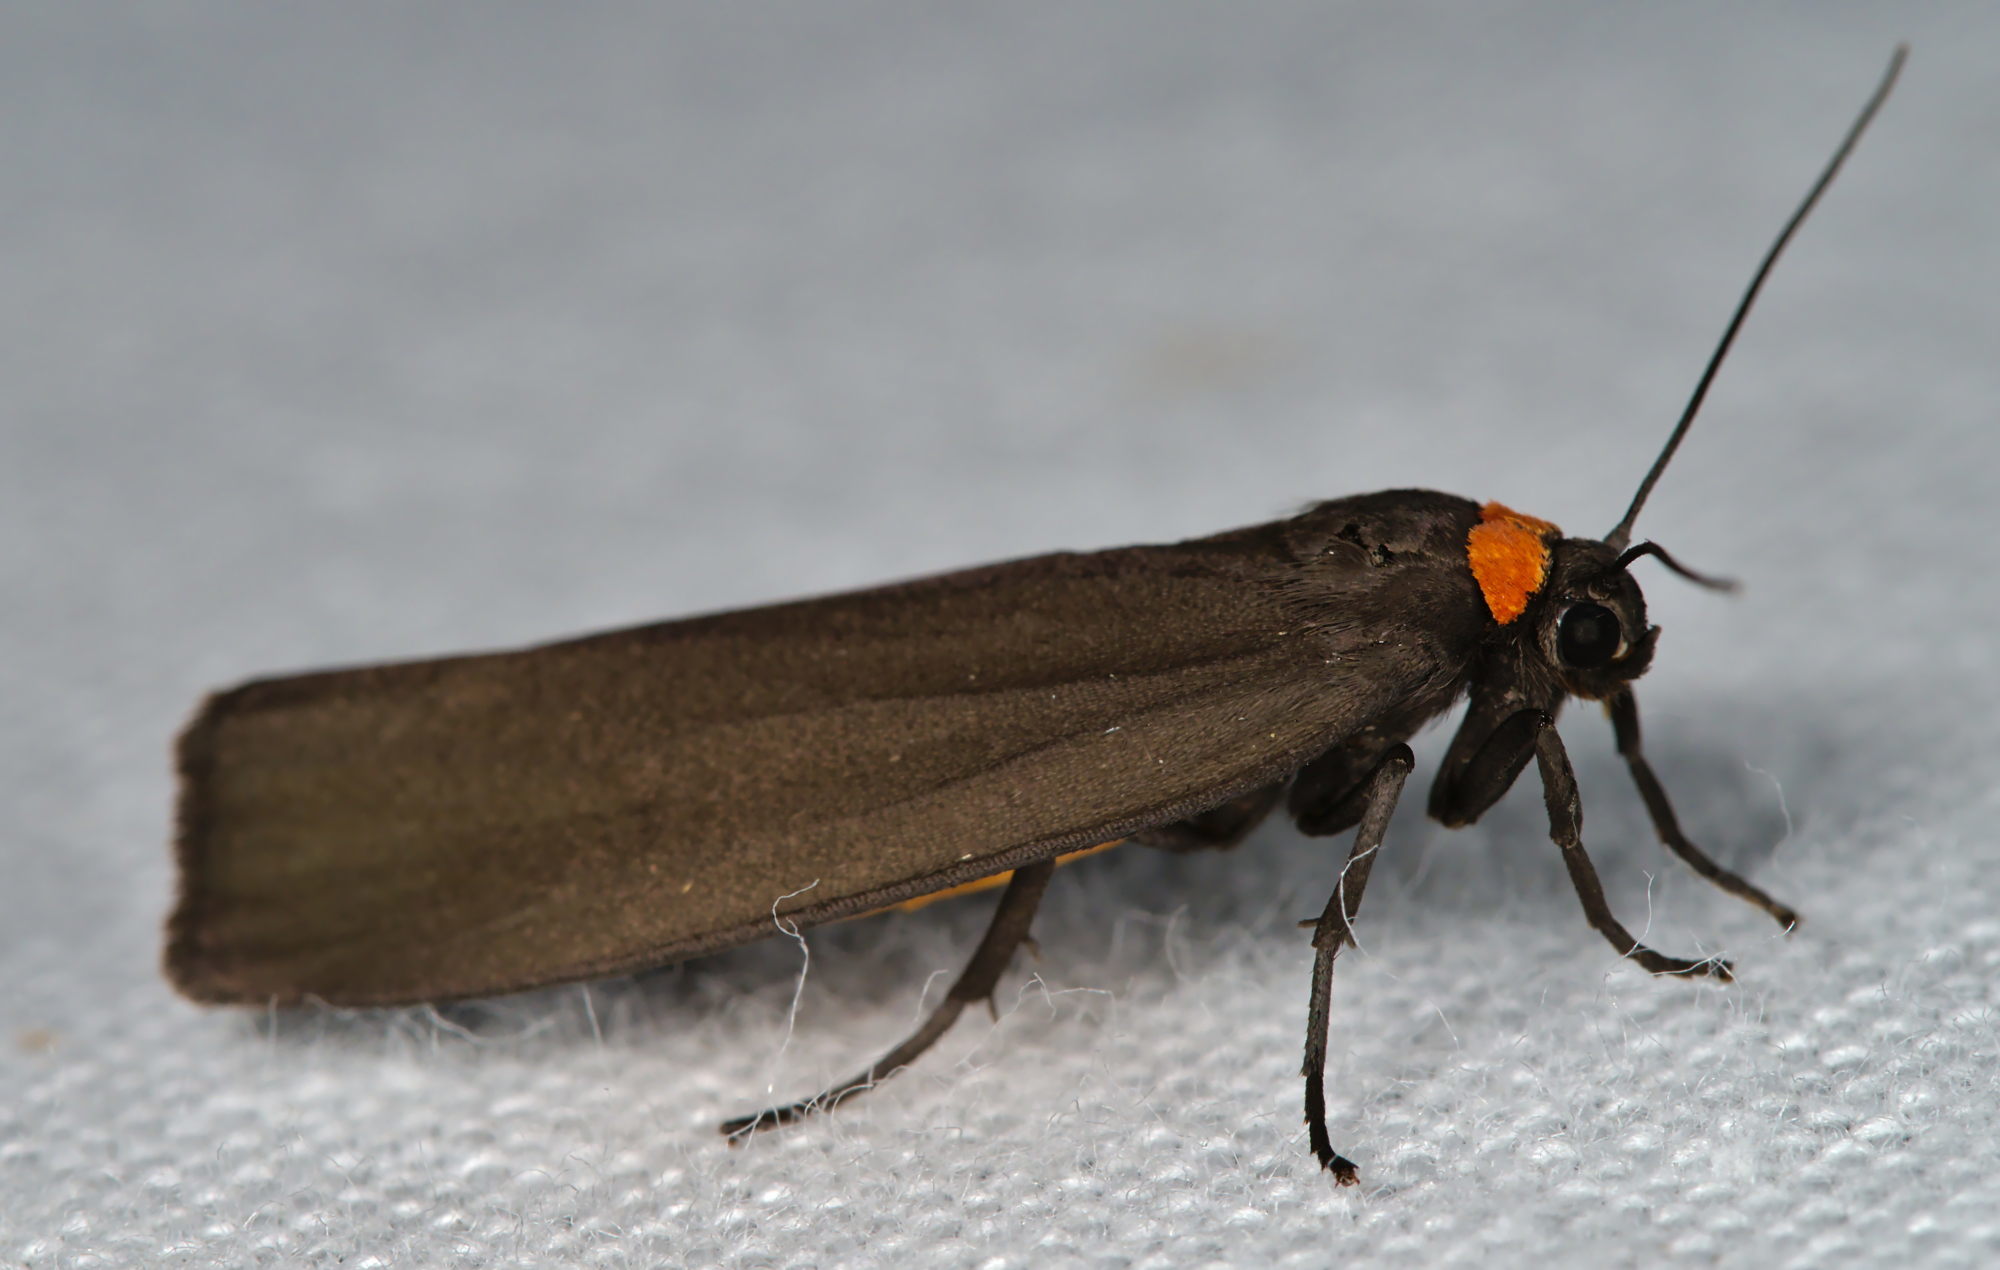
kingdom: Animalia
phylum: Arthropoda
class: Insecta
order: Lepidoptera
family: Erebidae
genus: Atolmis
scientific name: Atolmis rubricollis
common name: Red-necked footman
